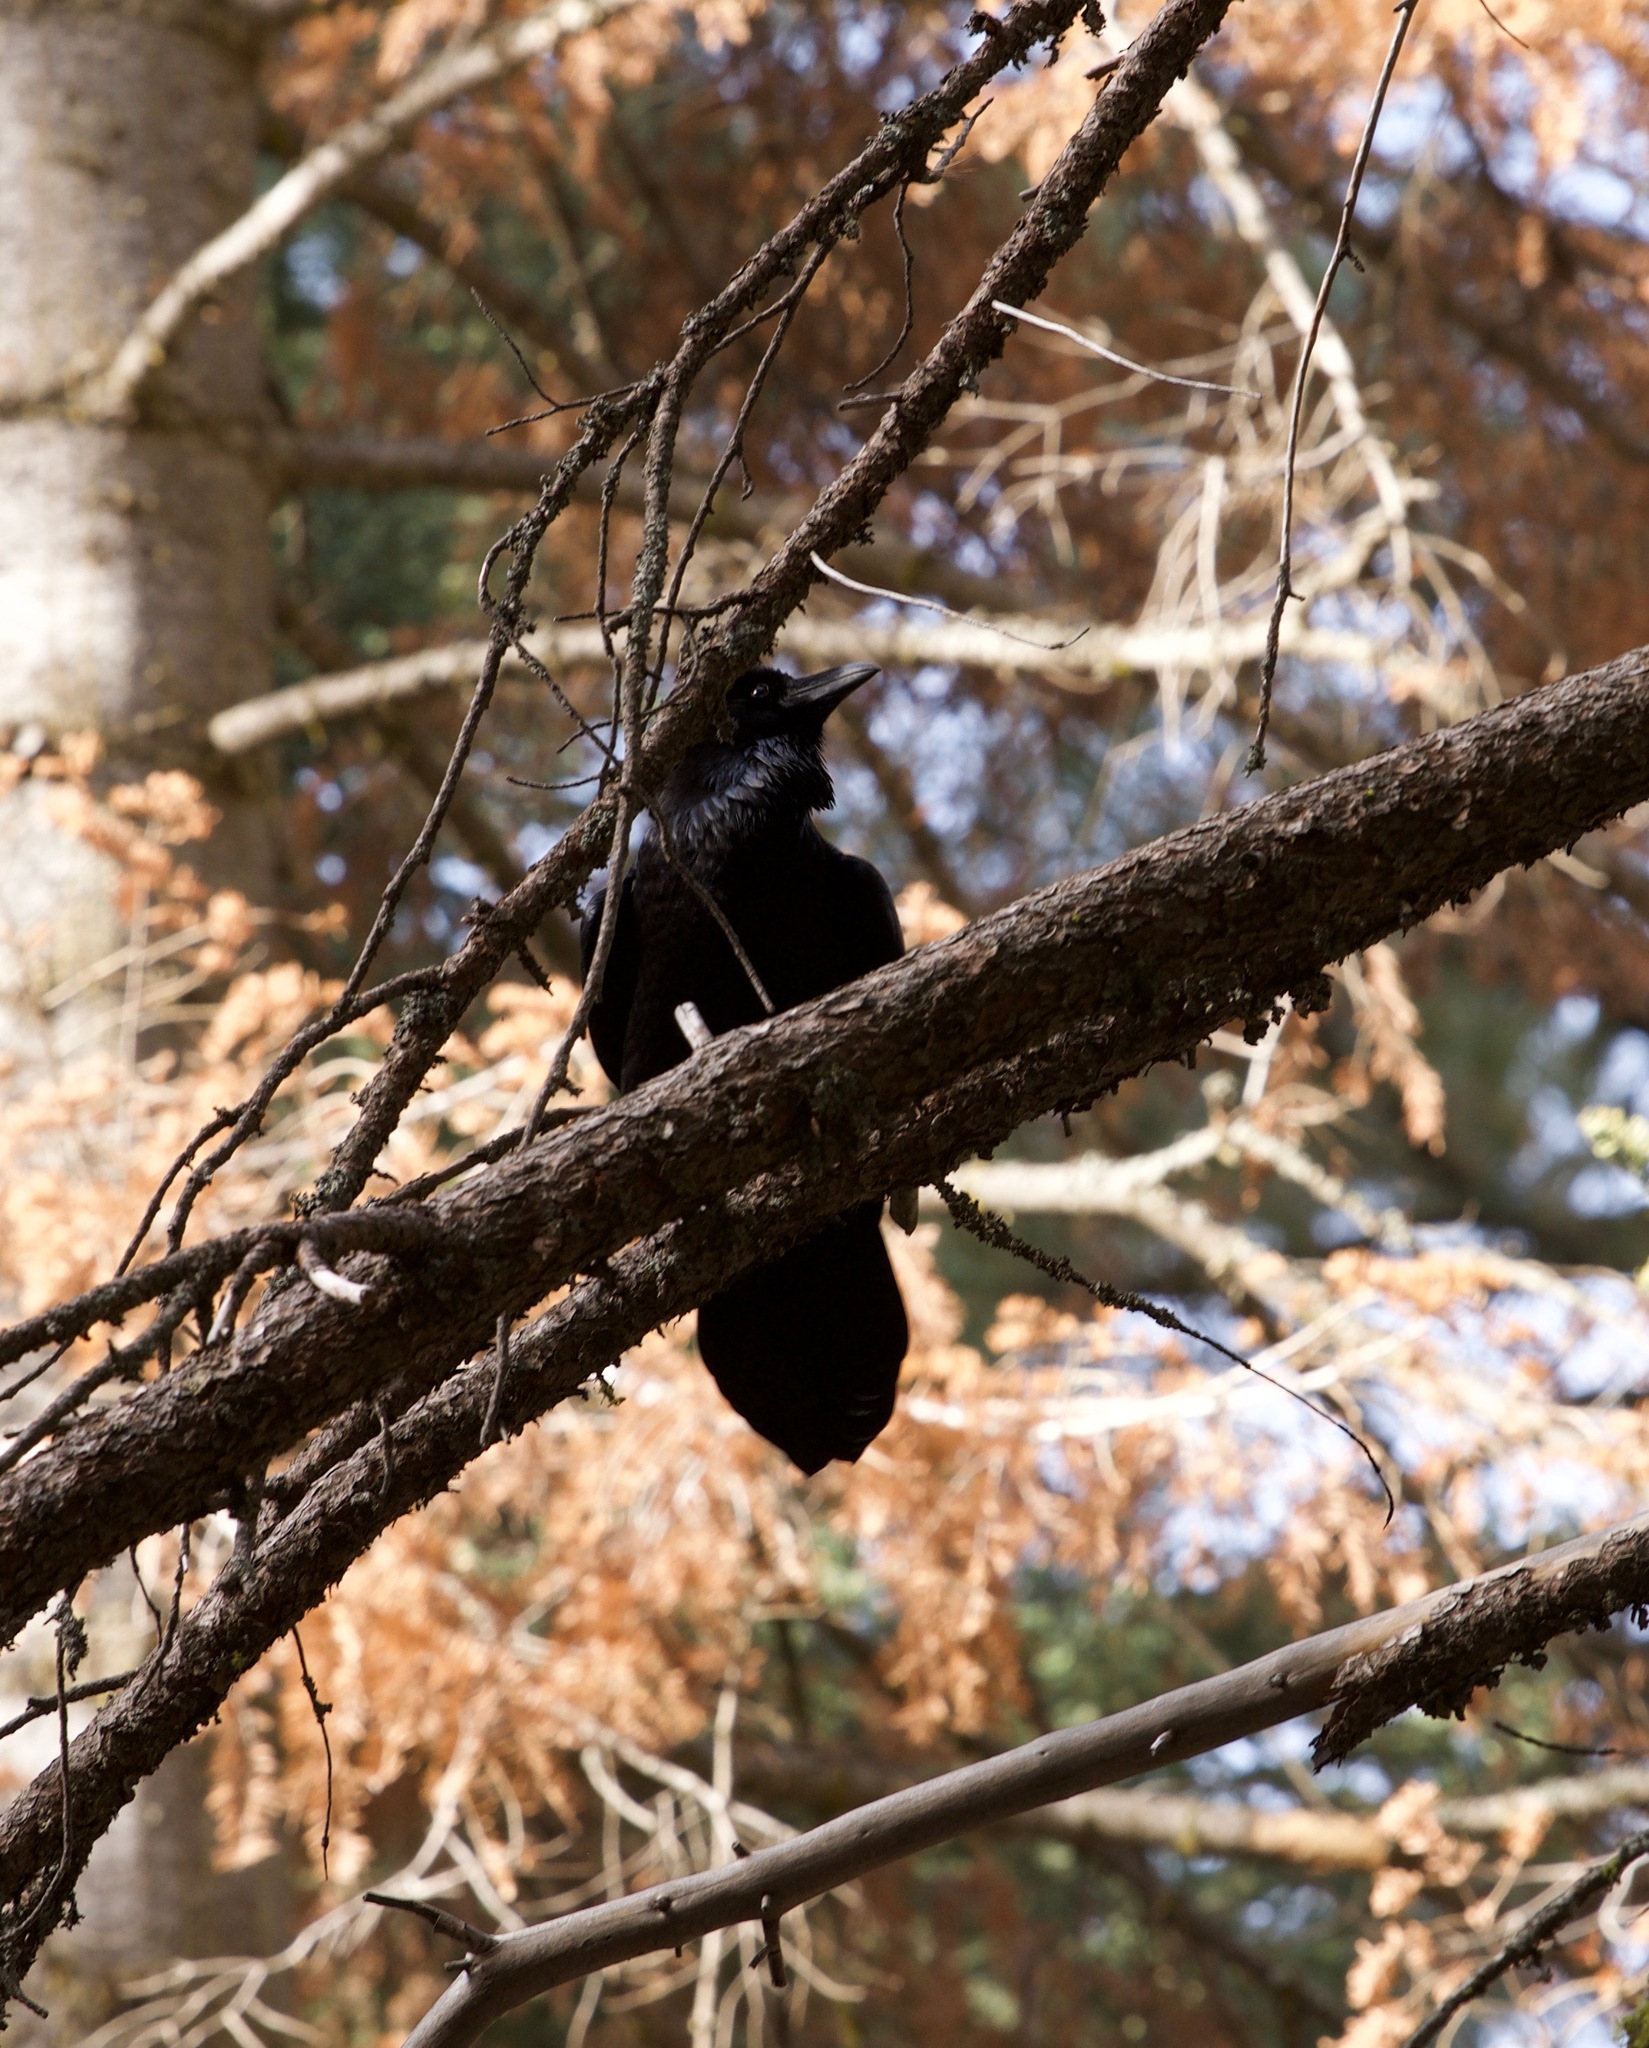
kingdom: Animalia
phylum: Chordata
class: Aves
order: Passeriformes
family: Corvidae
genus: Corvus
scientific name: Corvus corax
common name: Common raven
